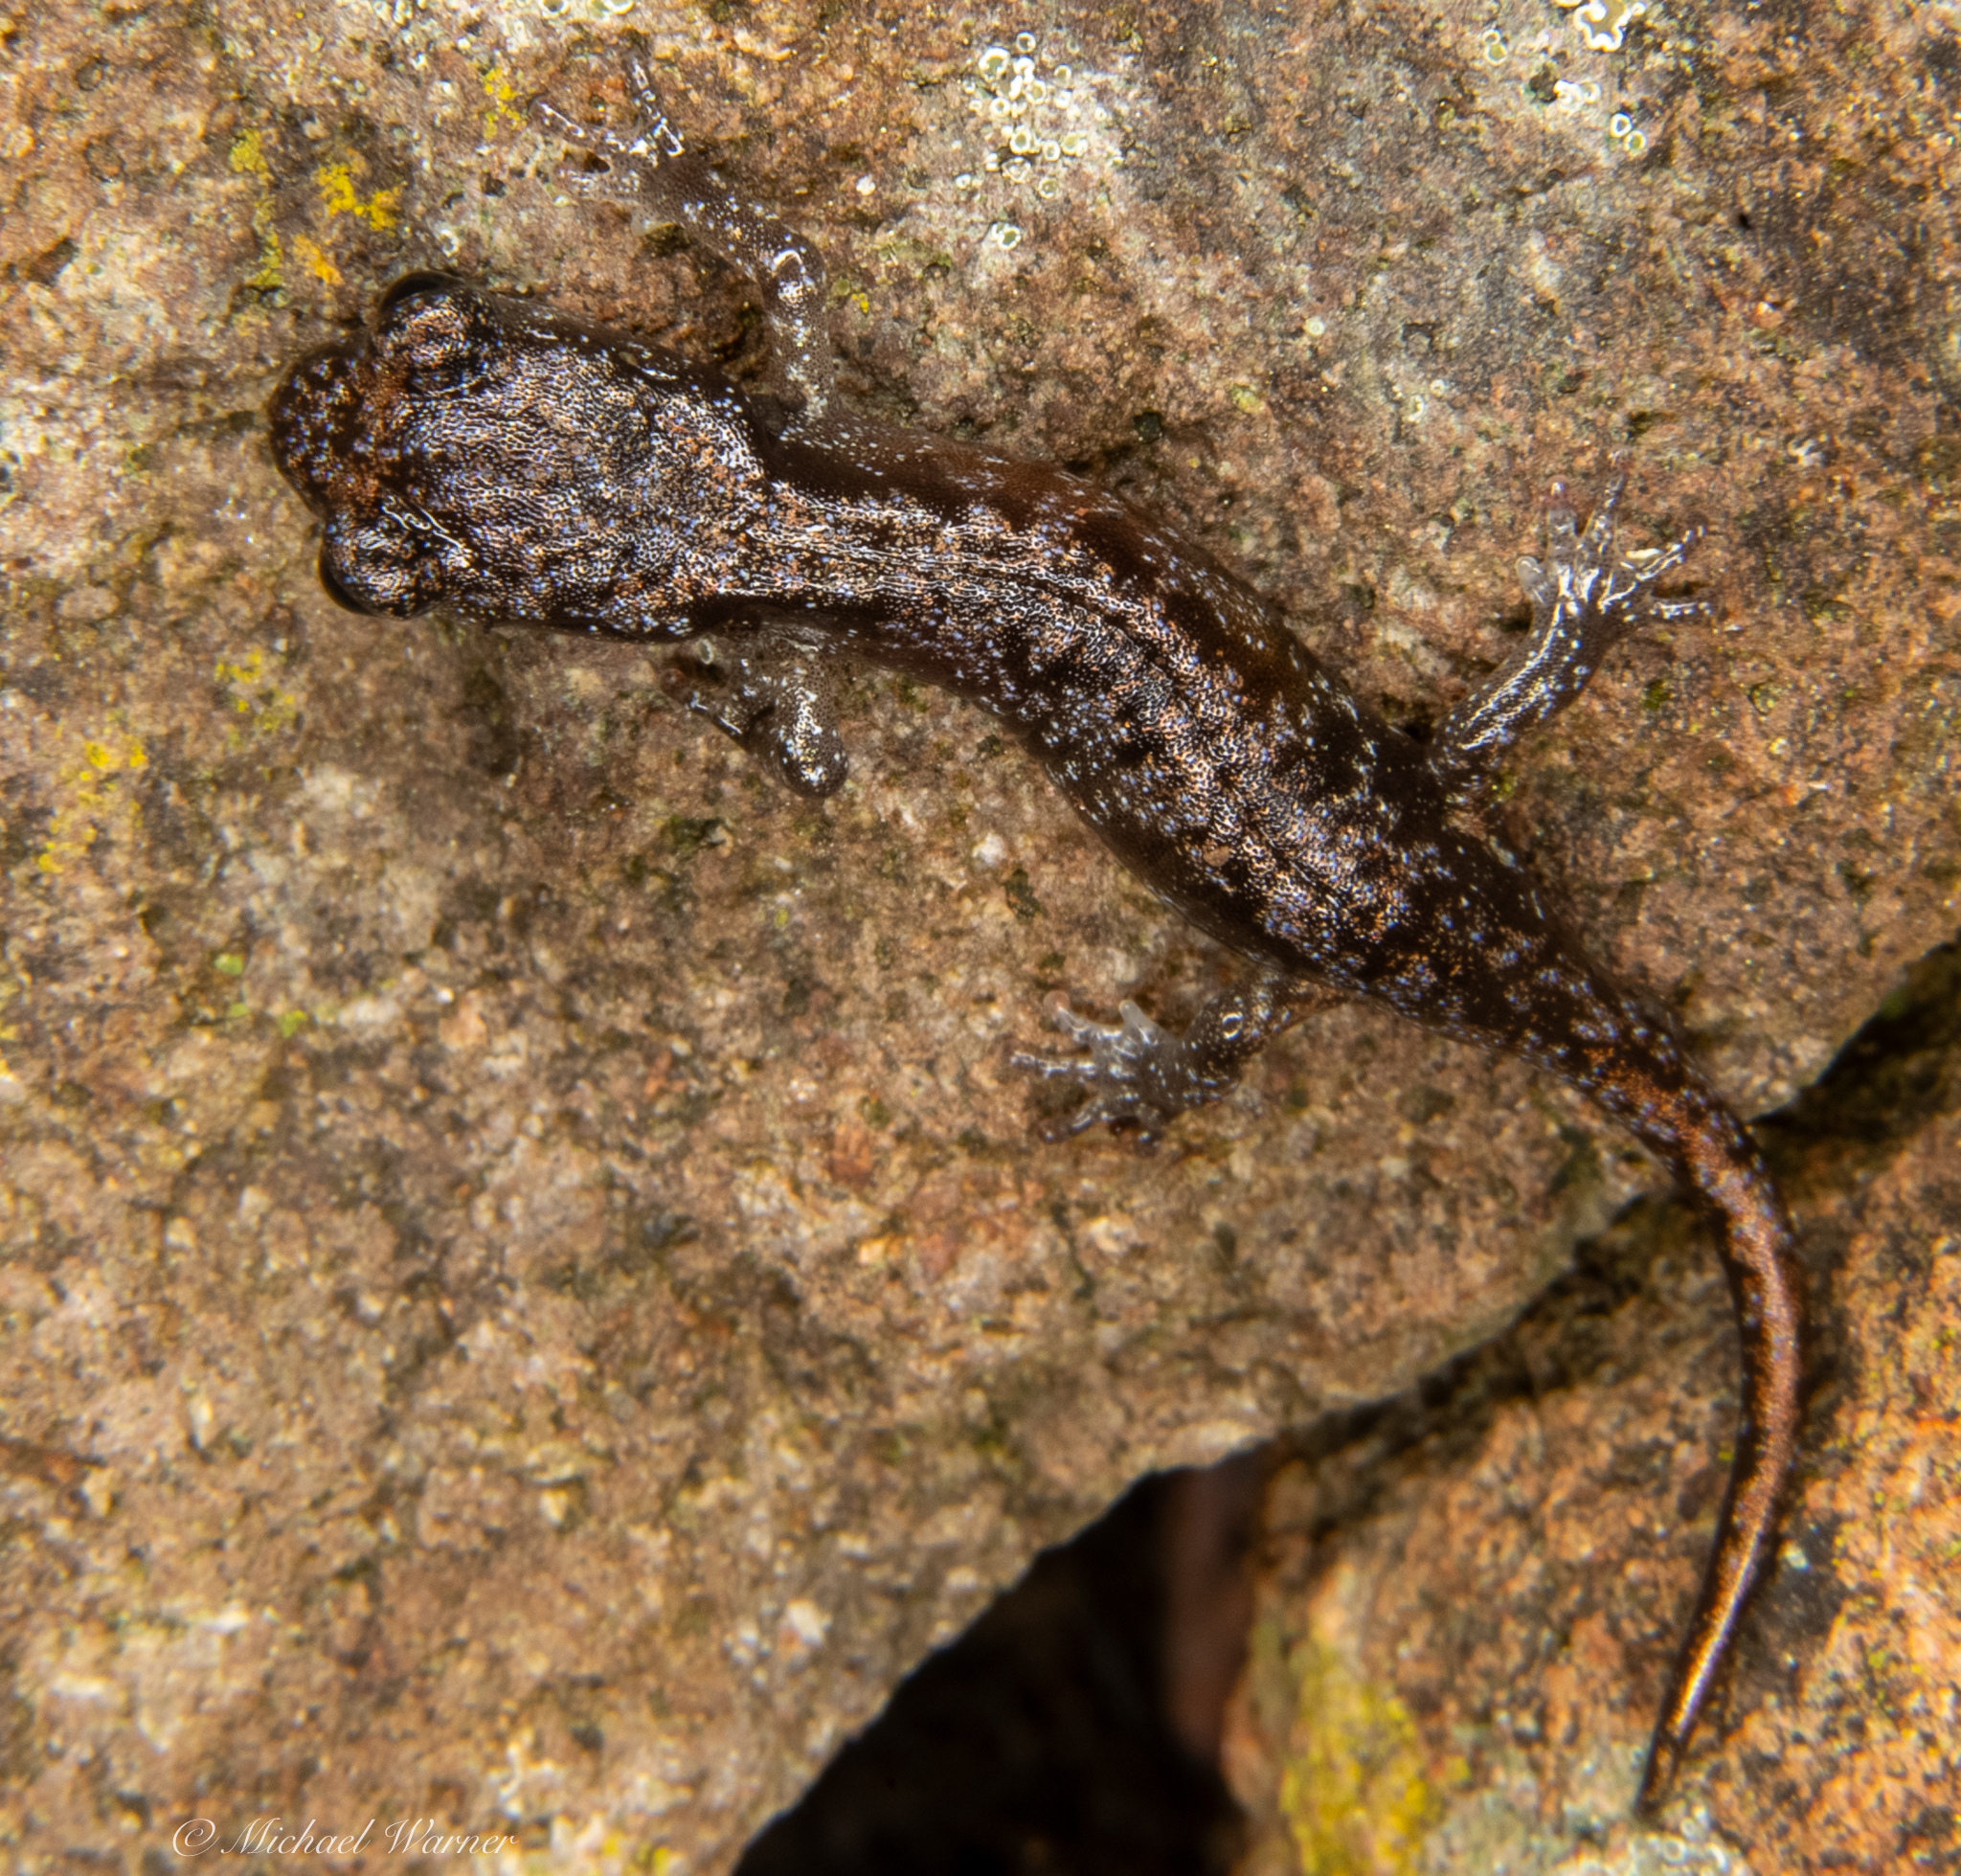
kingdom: Animalia
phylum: Chordata
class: Amphibia
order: Caudata
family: Plethodontidae
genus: Aneides
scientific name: Aneides lugubris
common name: Arboreal salamander
